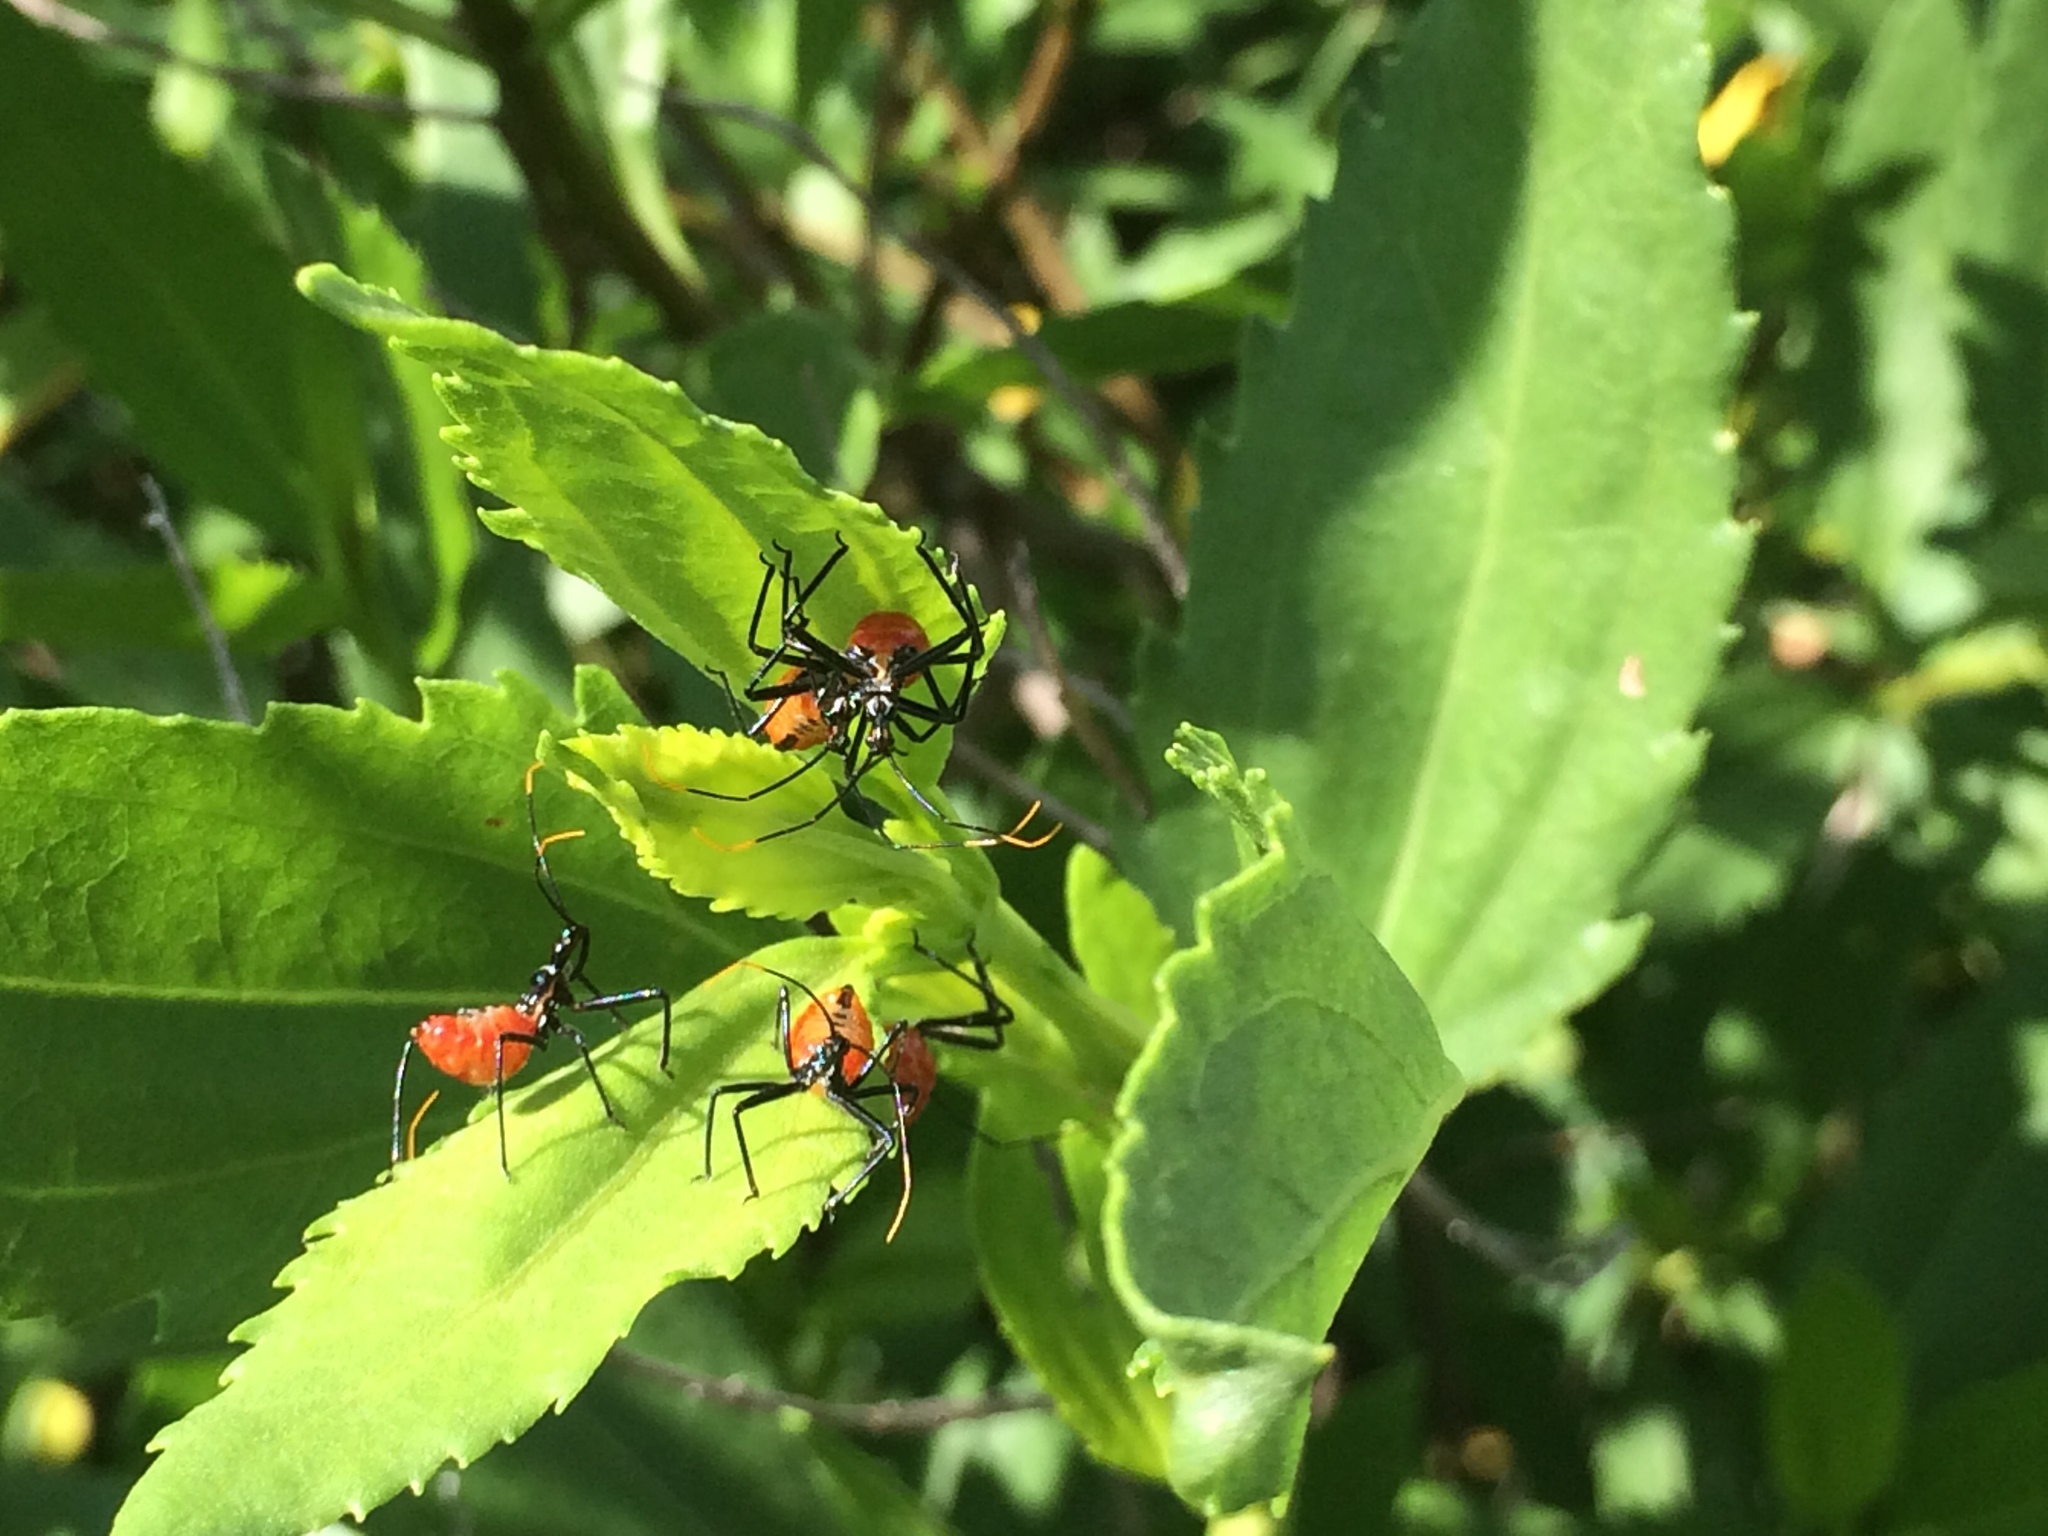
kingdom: Animalia
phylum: Arthropoda
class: Insecta
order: Hemiptera
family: Reduviidae
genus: Arilus
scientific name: Arilus cristatus
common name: North american wheel bug
